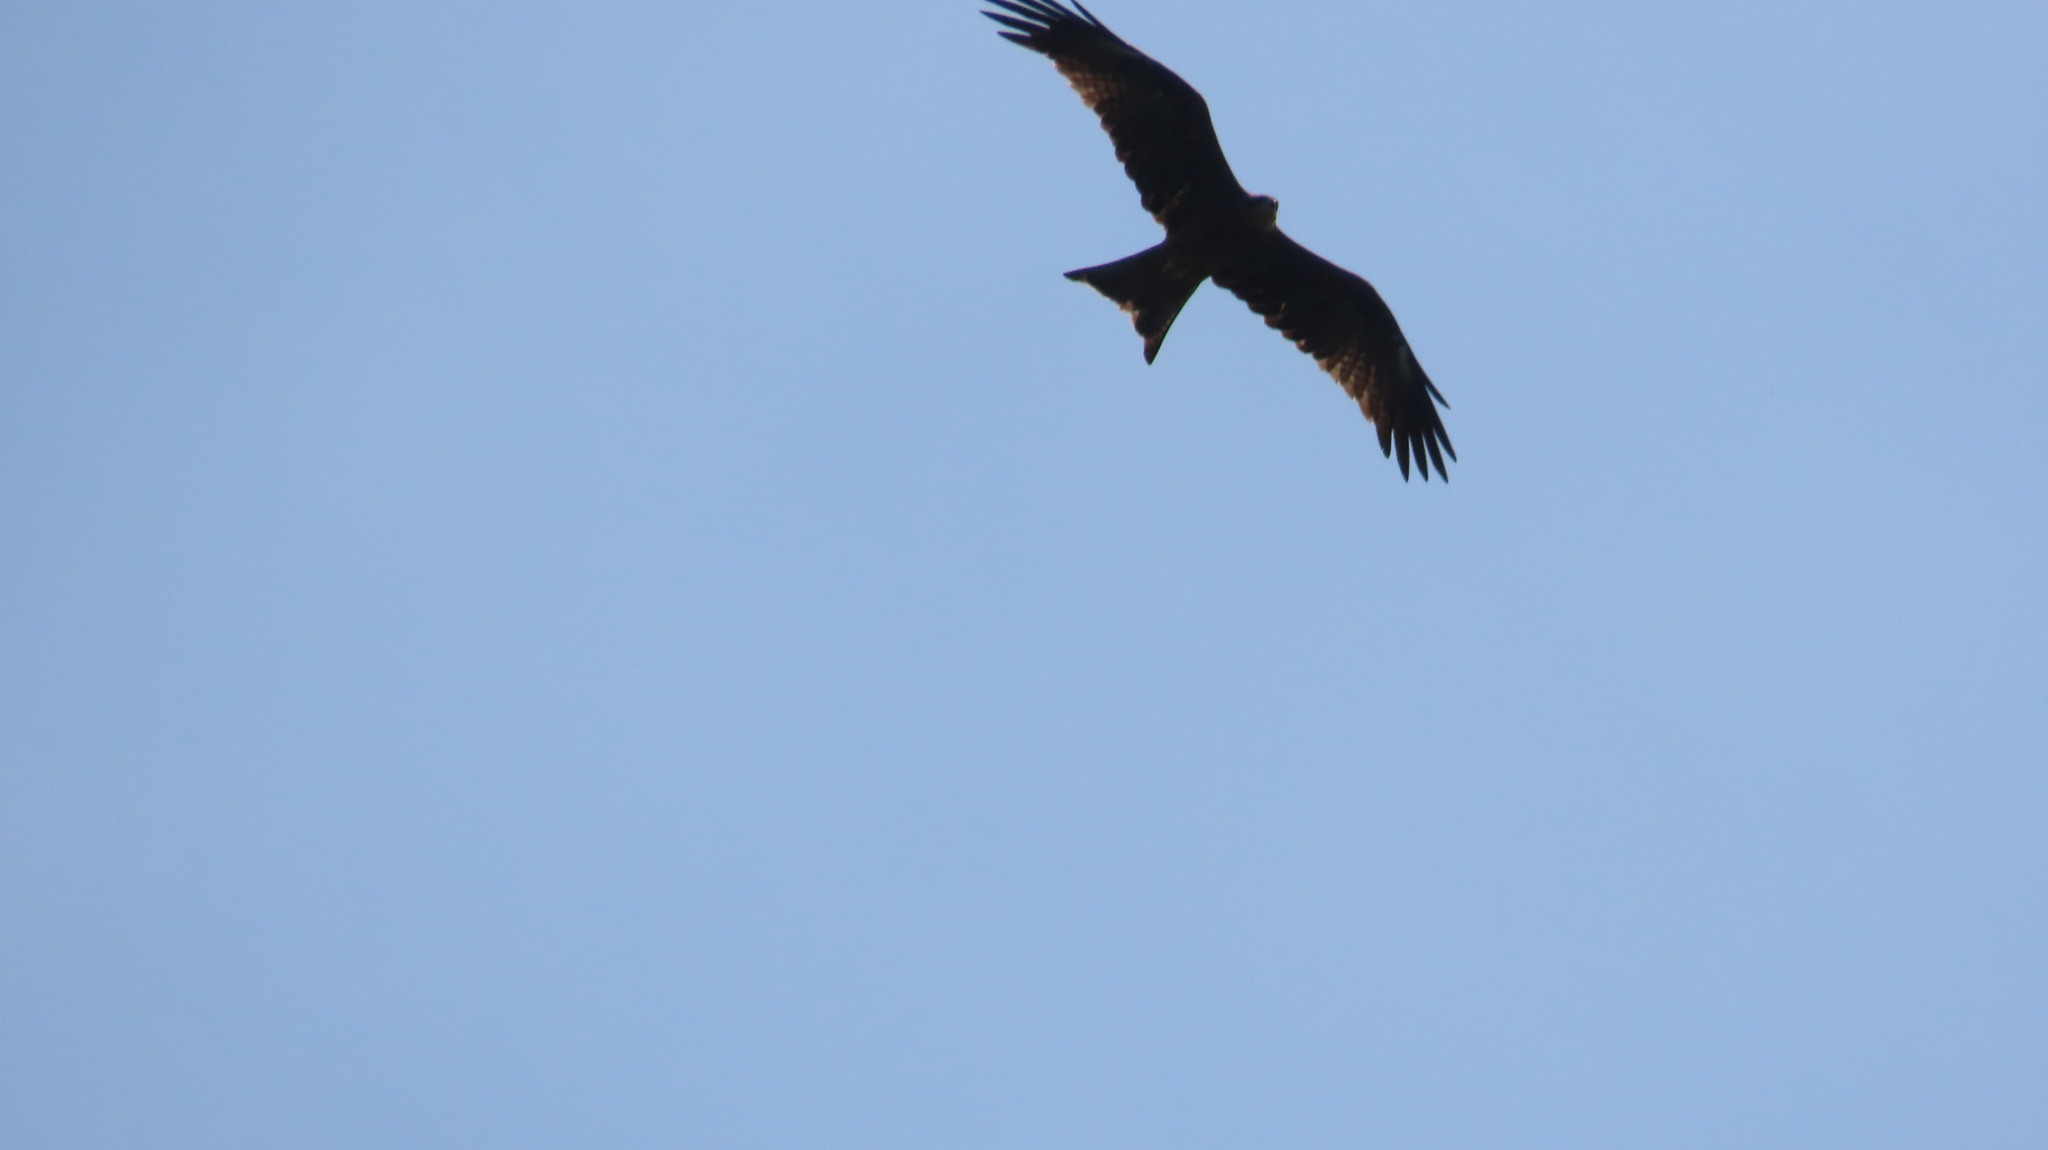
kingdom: Animalia
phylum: Chordata
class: Aves
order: Accipitriformes
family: Accipitridae
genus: Milvus
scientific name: Milvus migrans
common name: Black kite
